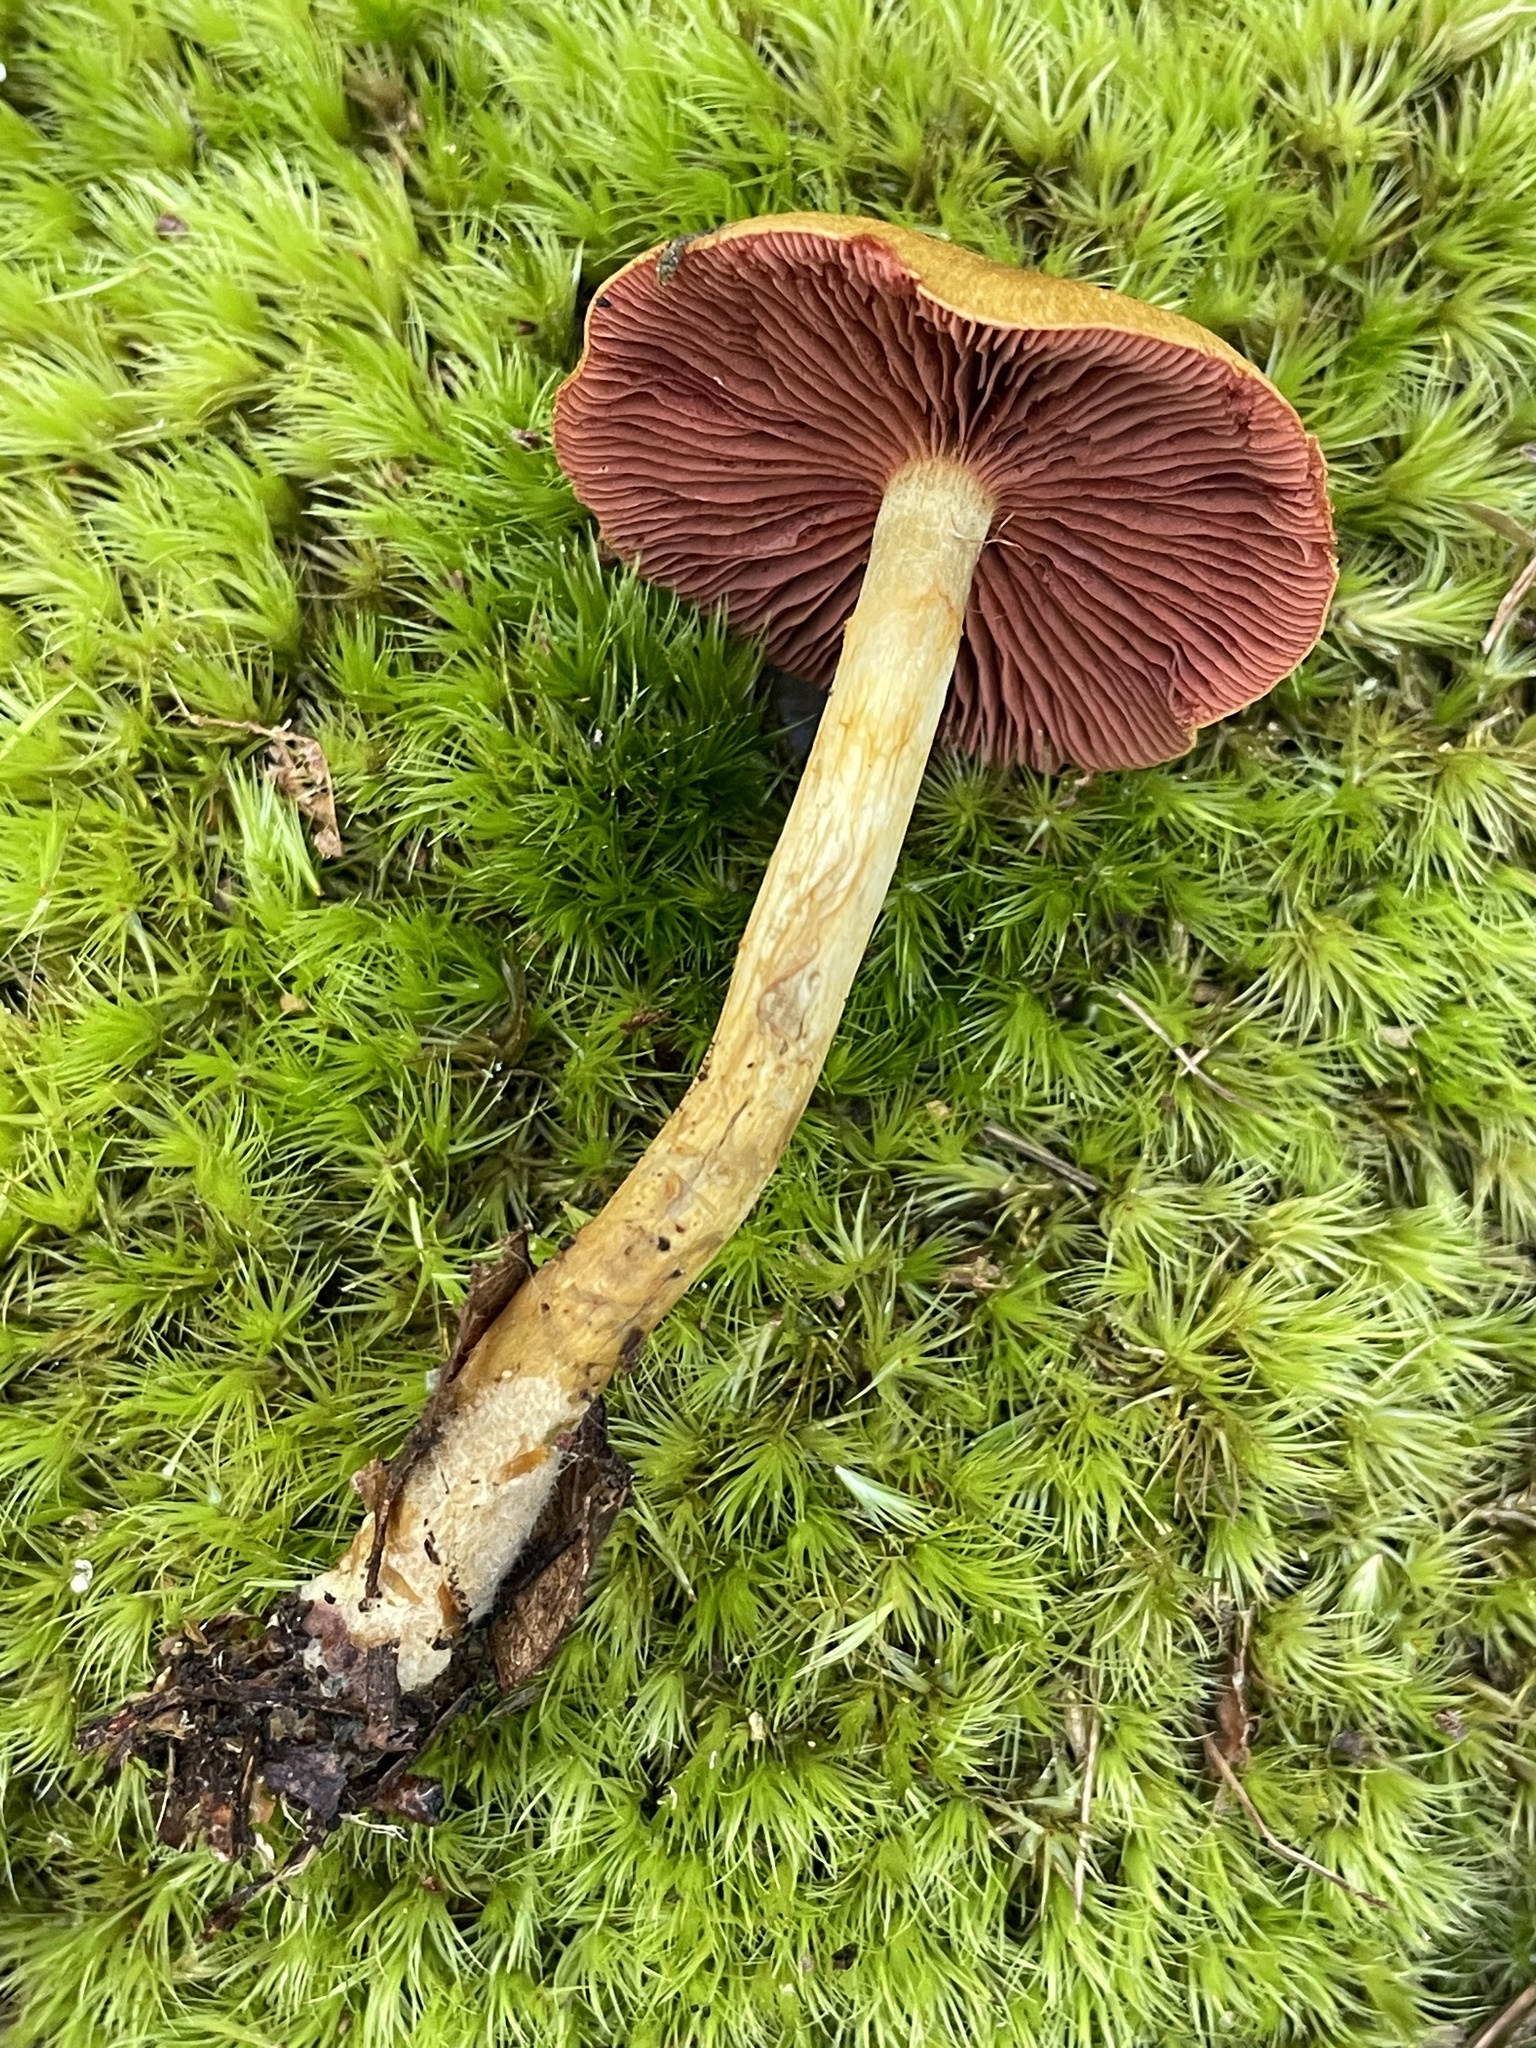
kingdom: Fungi
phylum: Basidiomycota
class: Agaricomycetes
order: Agaricales
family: Cortinariaceae
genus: Cortinarius
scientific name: Cortinarius semisanguineus
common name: Surprise webcap
